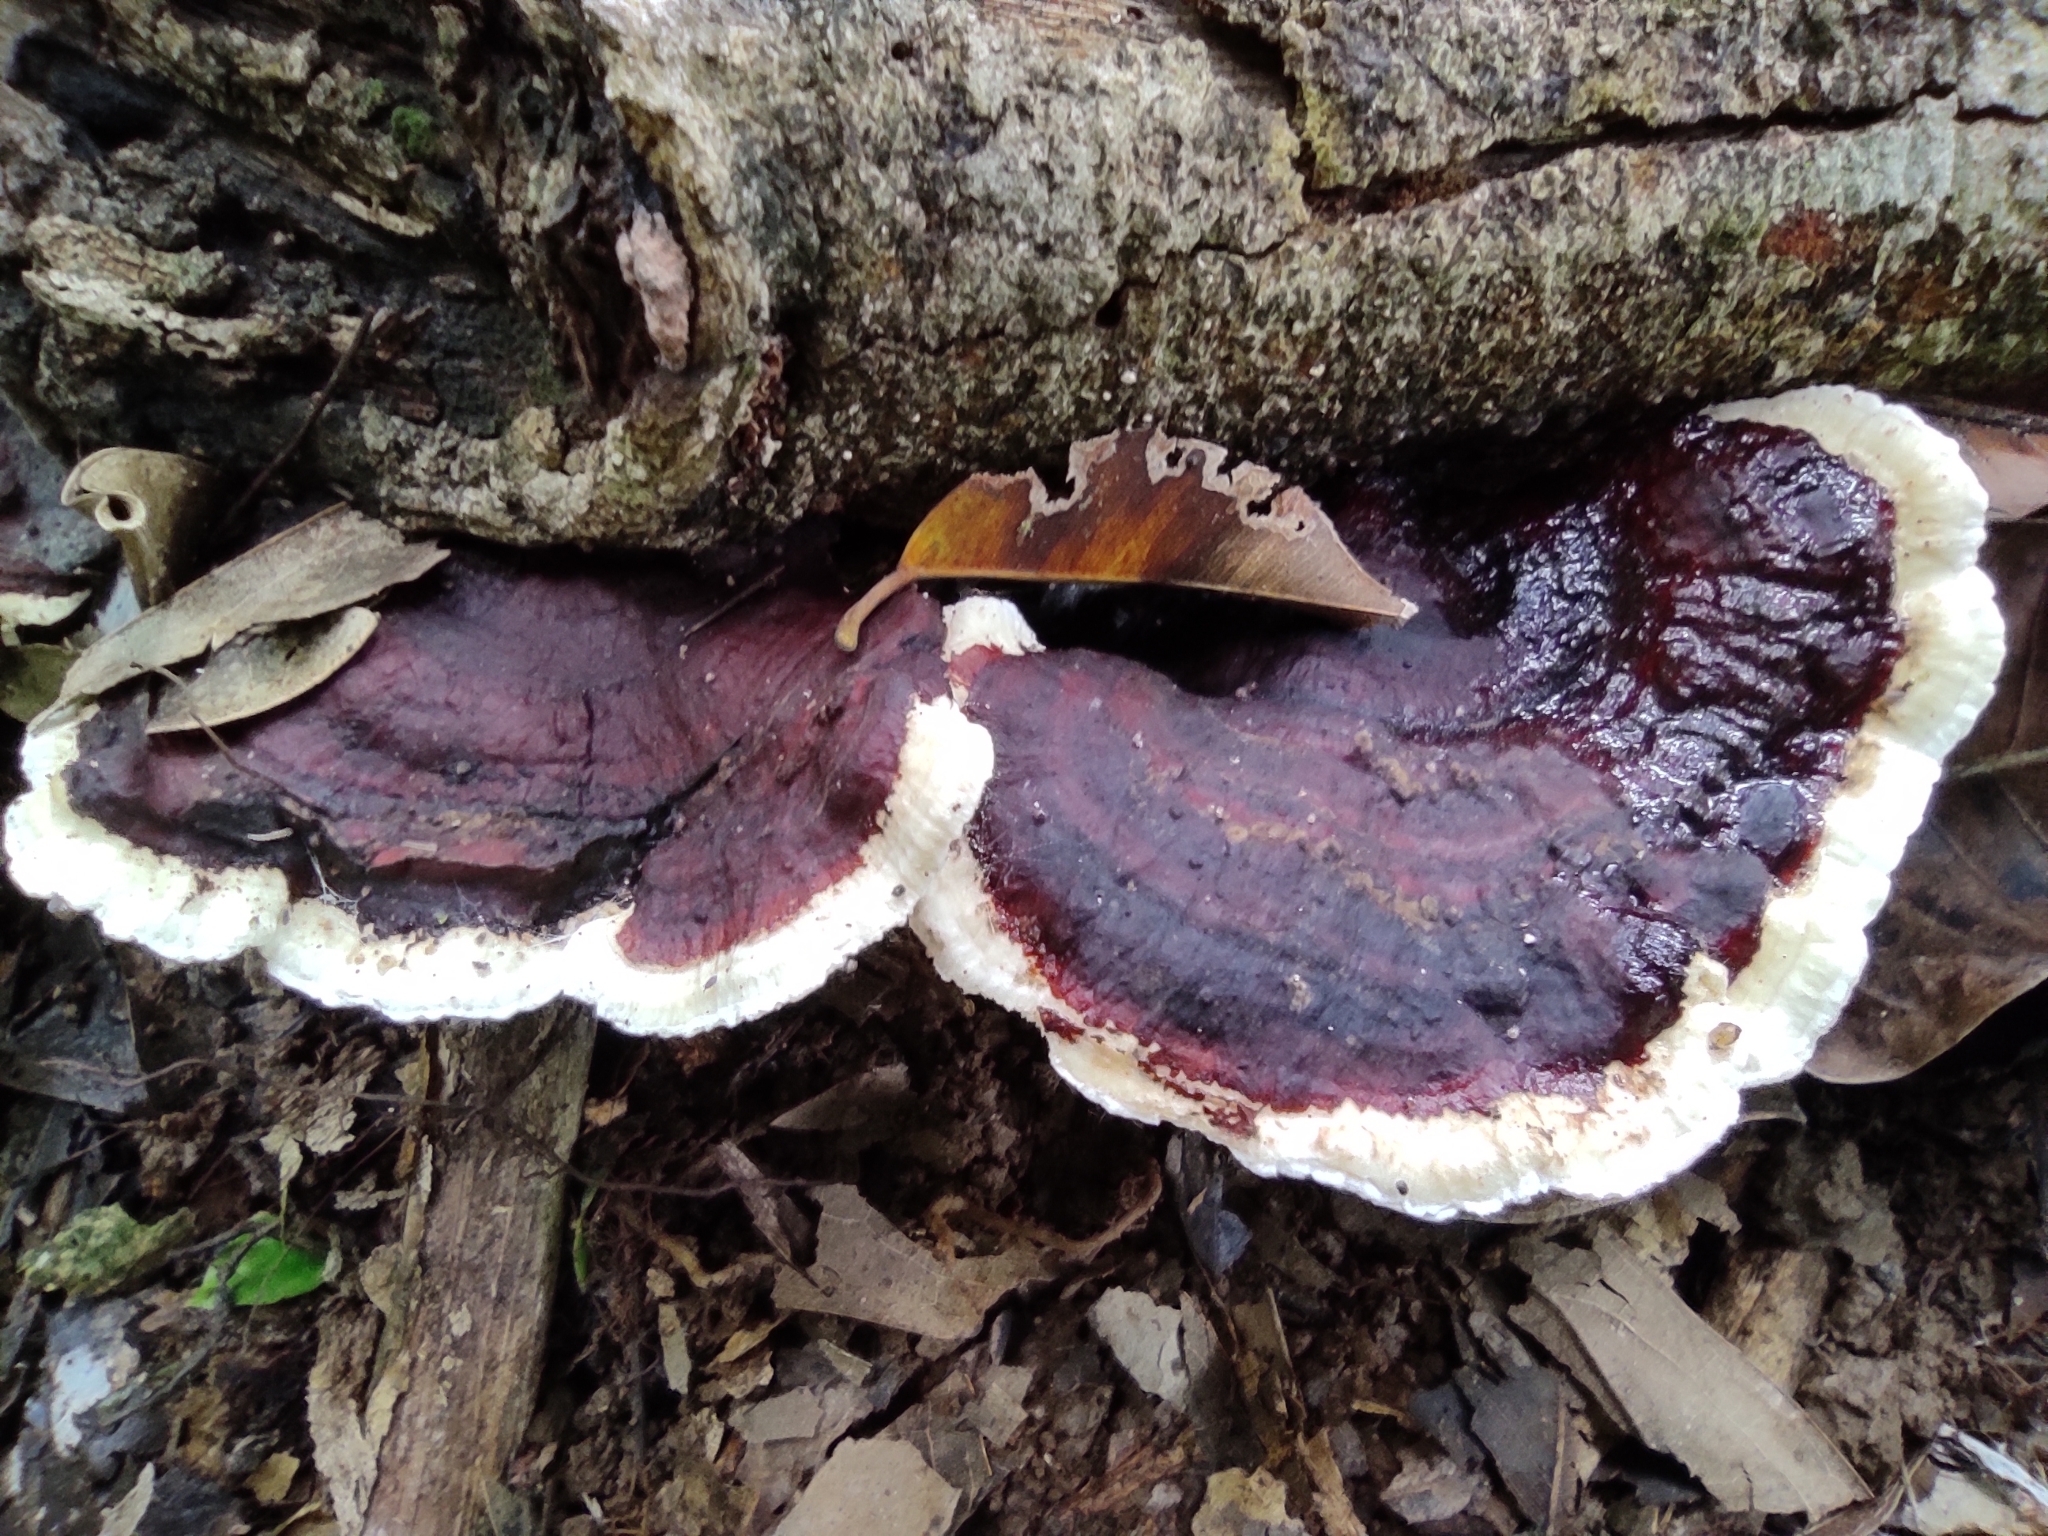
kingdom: Fungi
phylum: Basidiomycota
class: Agaricomycetes
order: Polyporales
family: Polyporaceae
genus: Earliella
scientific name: Earliella scabrosa
